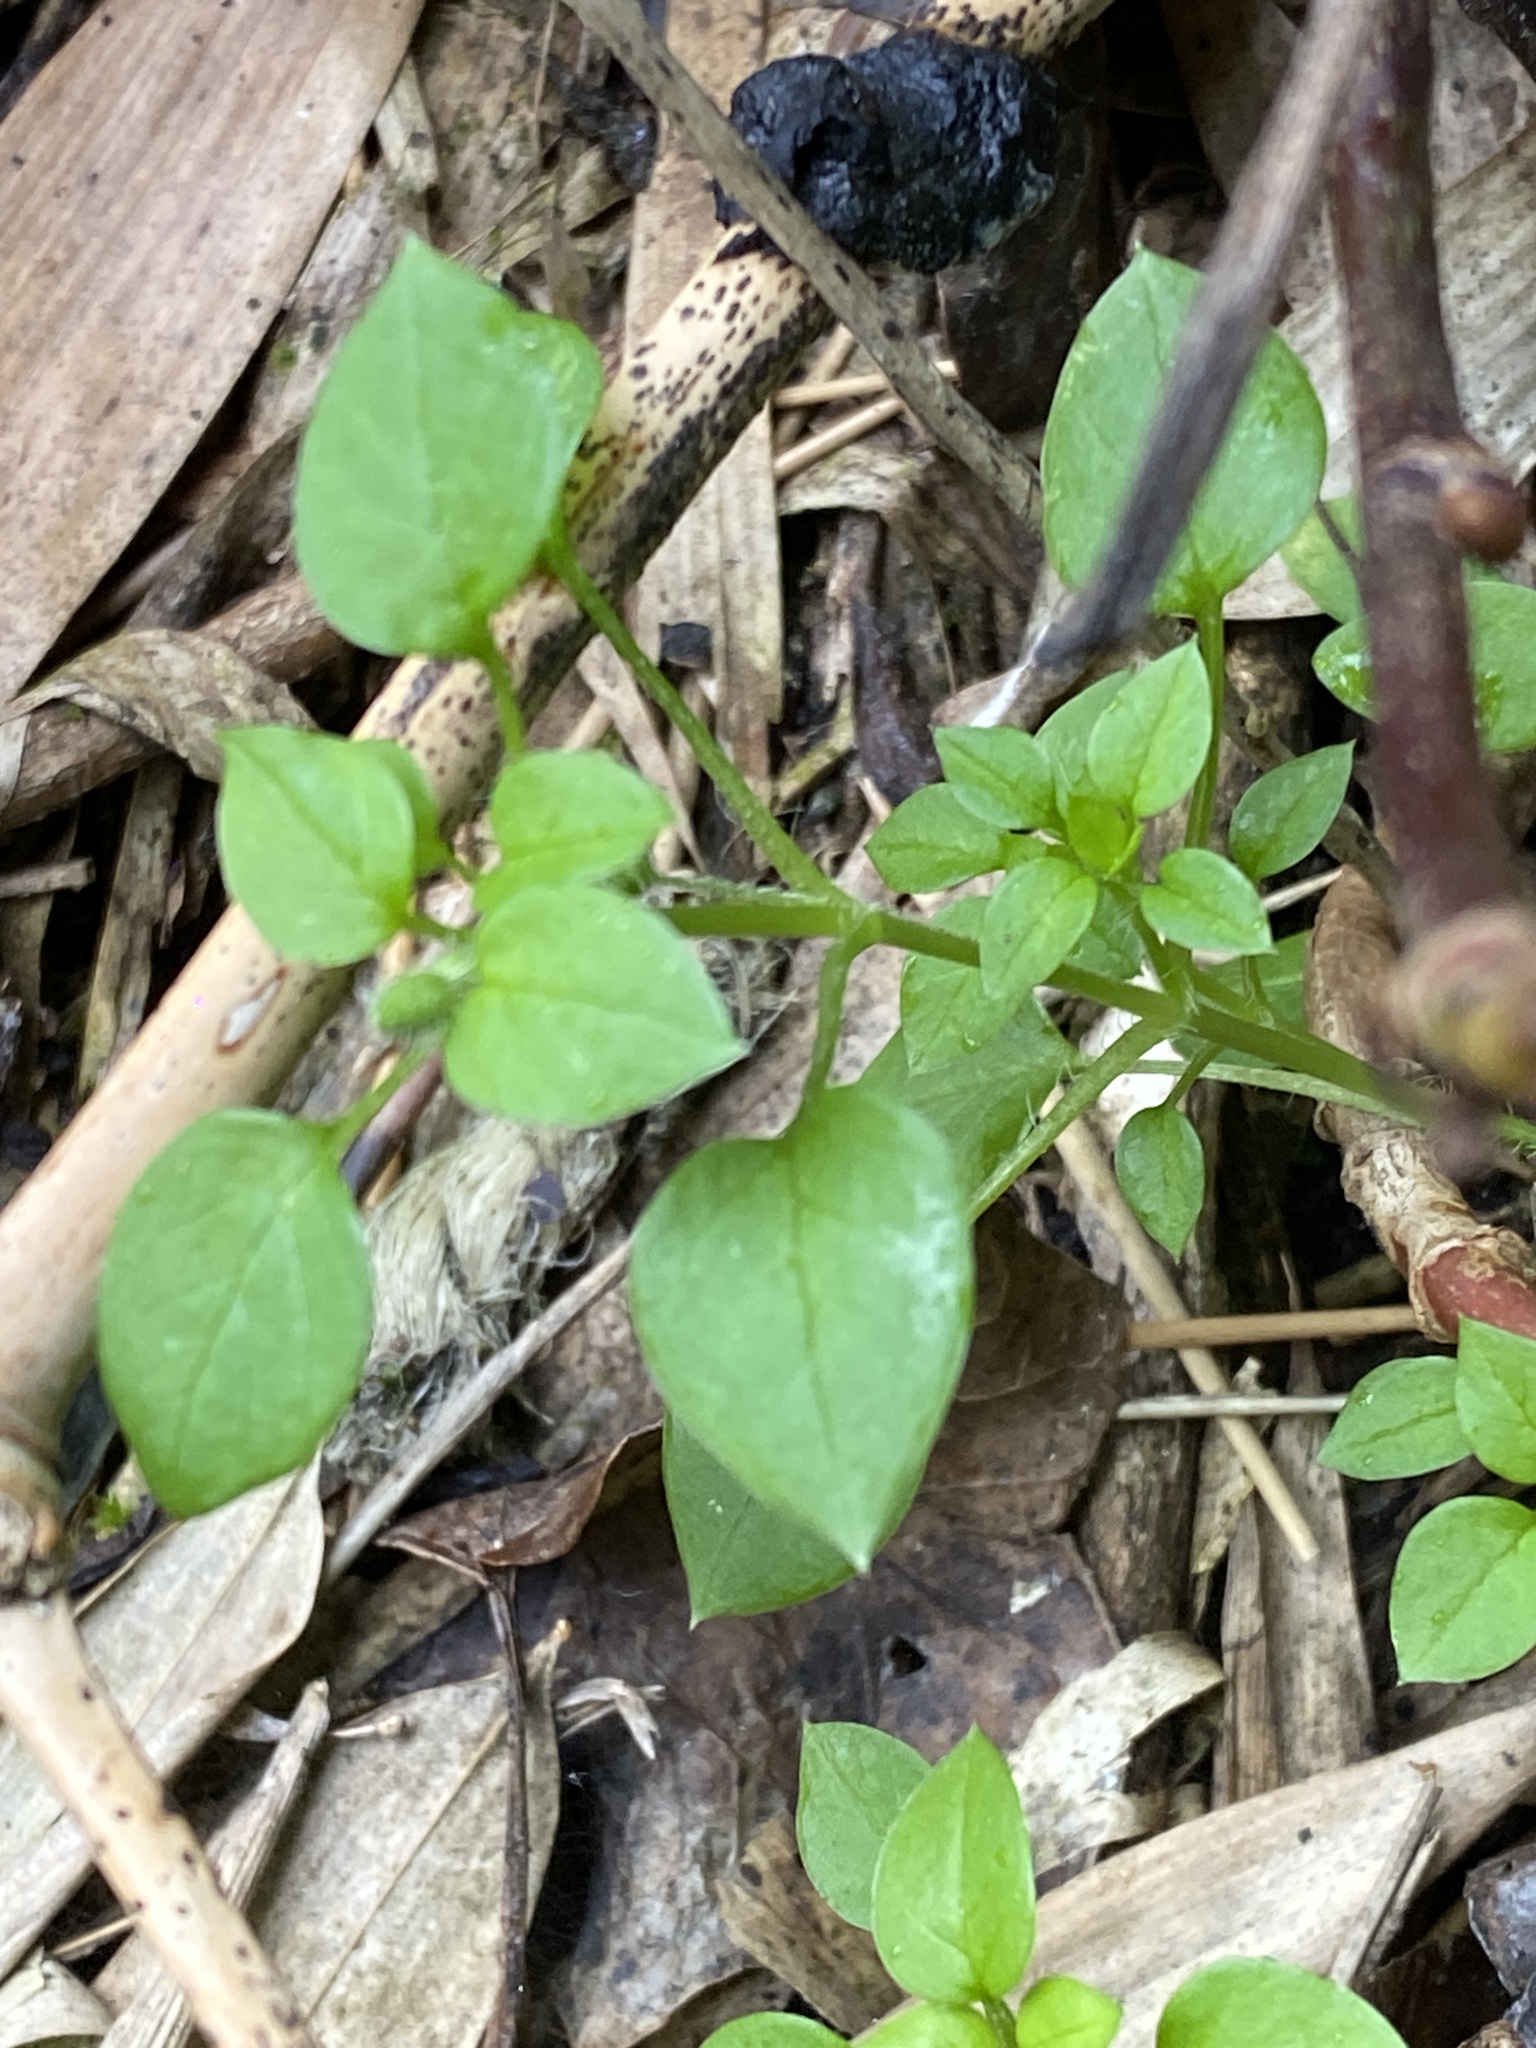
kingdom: Plantae
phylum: Tracheophyta
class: Magnoliopsida
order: Caryophyllales
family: Caryophyllaceae
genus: Stellaria
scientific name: Stellaria media
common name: Common chickweed
